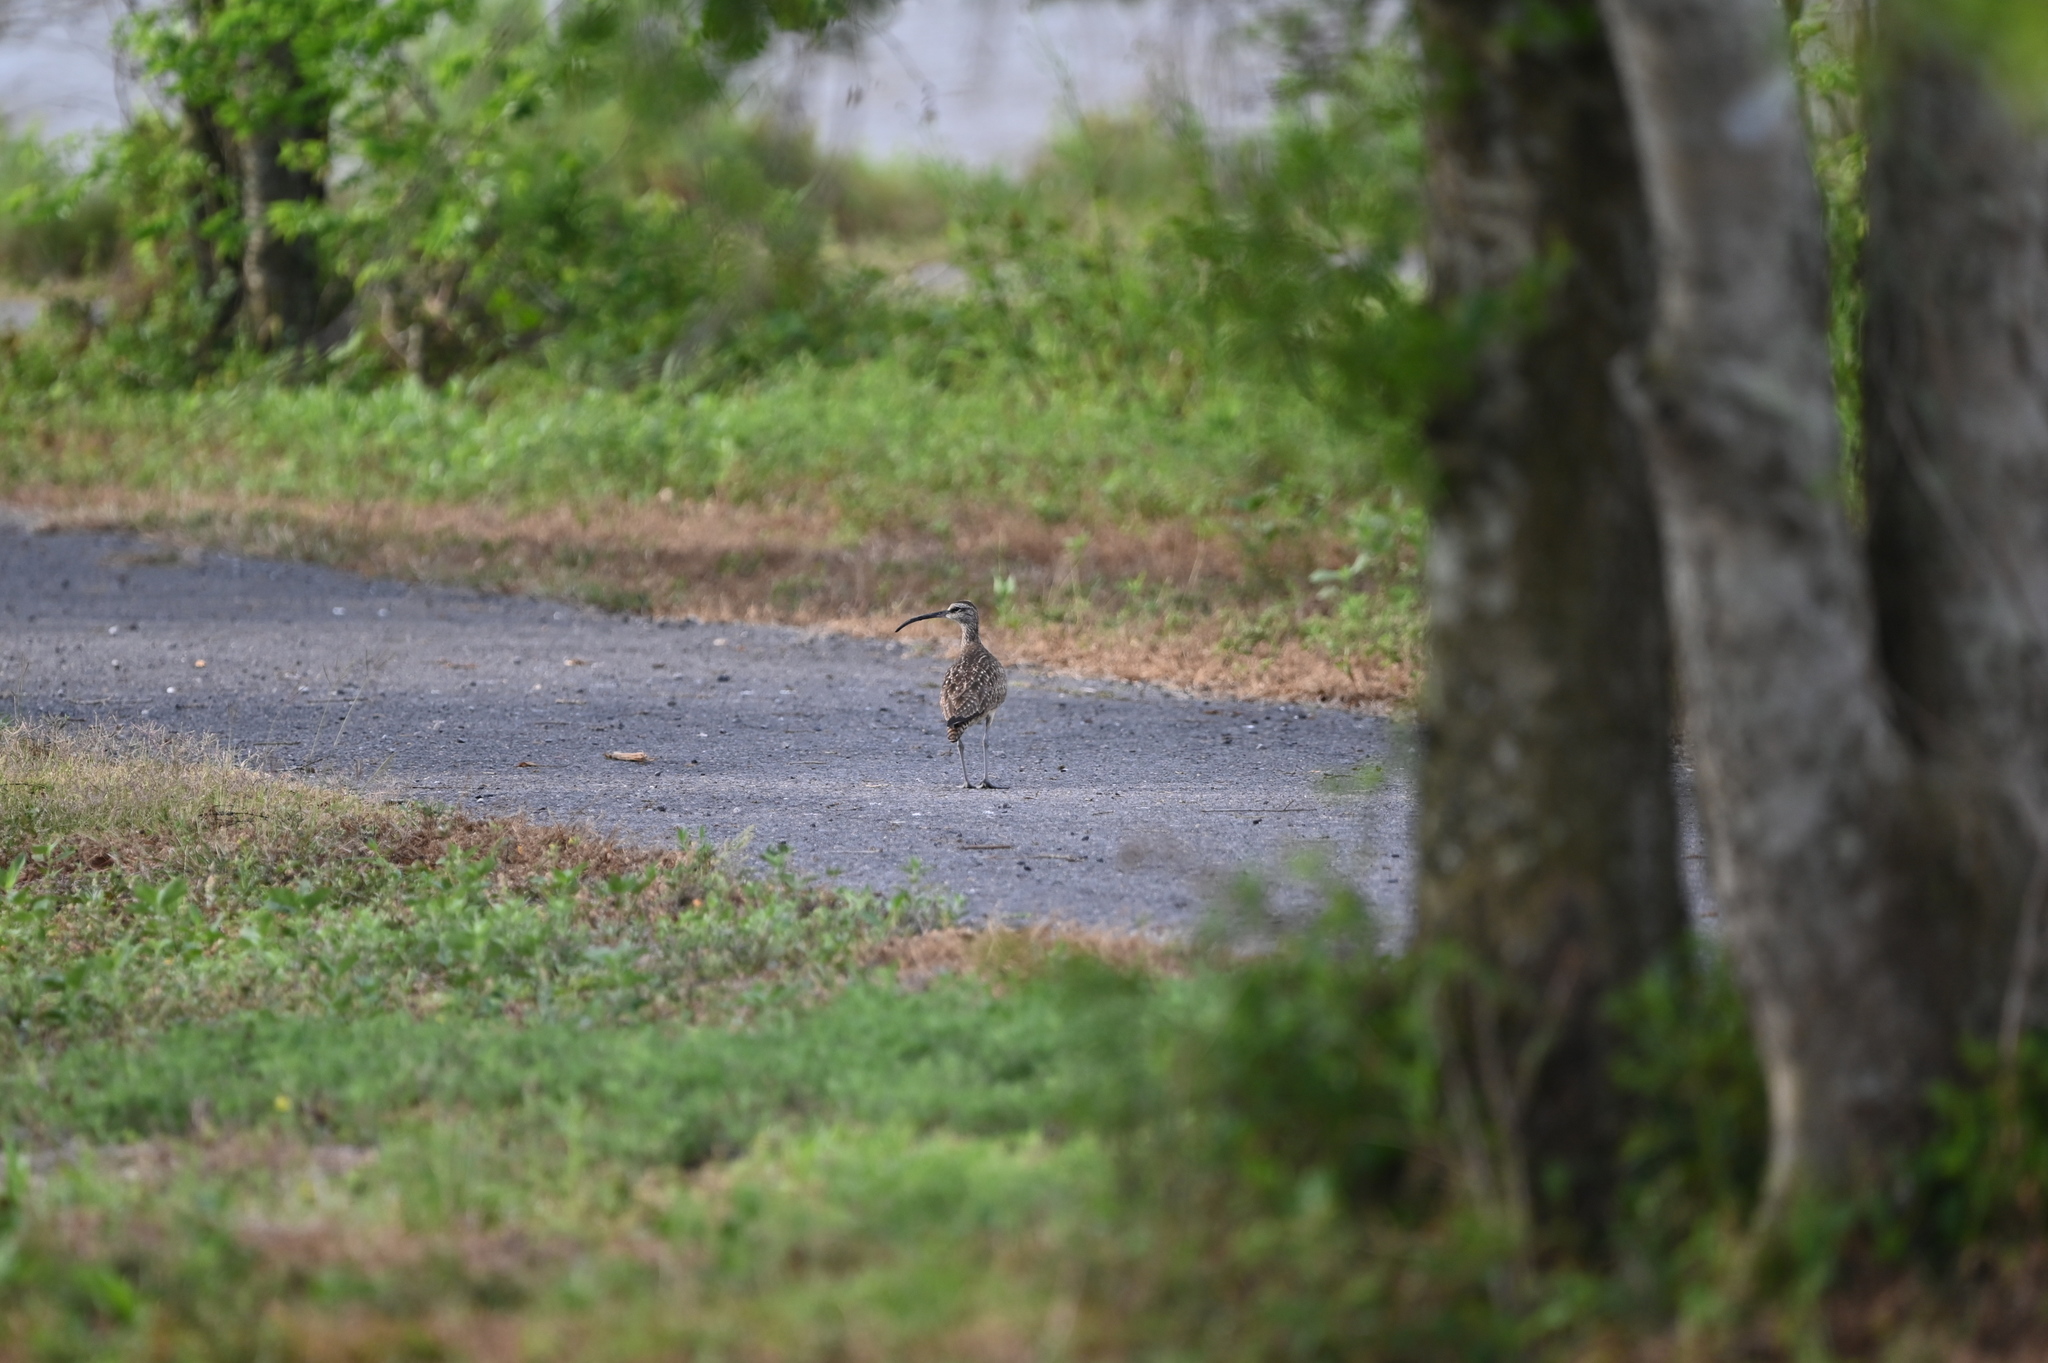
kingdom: Animalia
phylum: Chordata
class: Aves
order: Charadriiformes
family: Scolopacidae
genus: Numenius
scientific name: Numenius phaeopus
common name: Whimbrel
